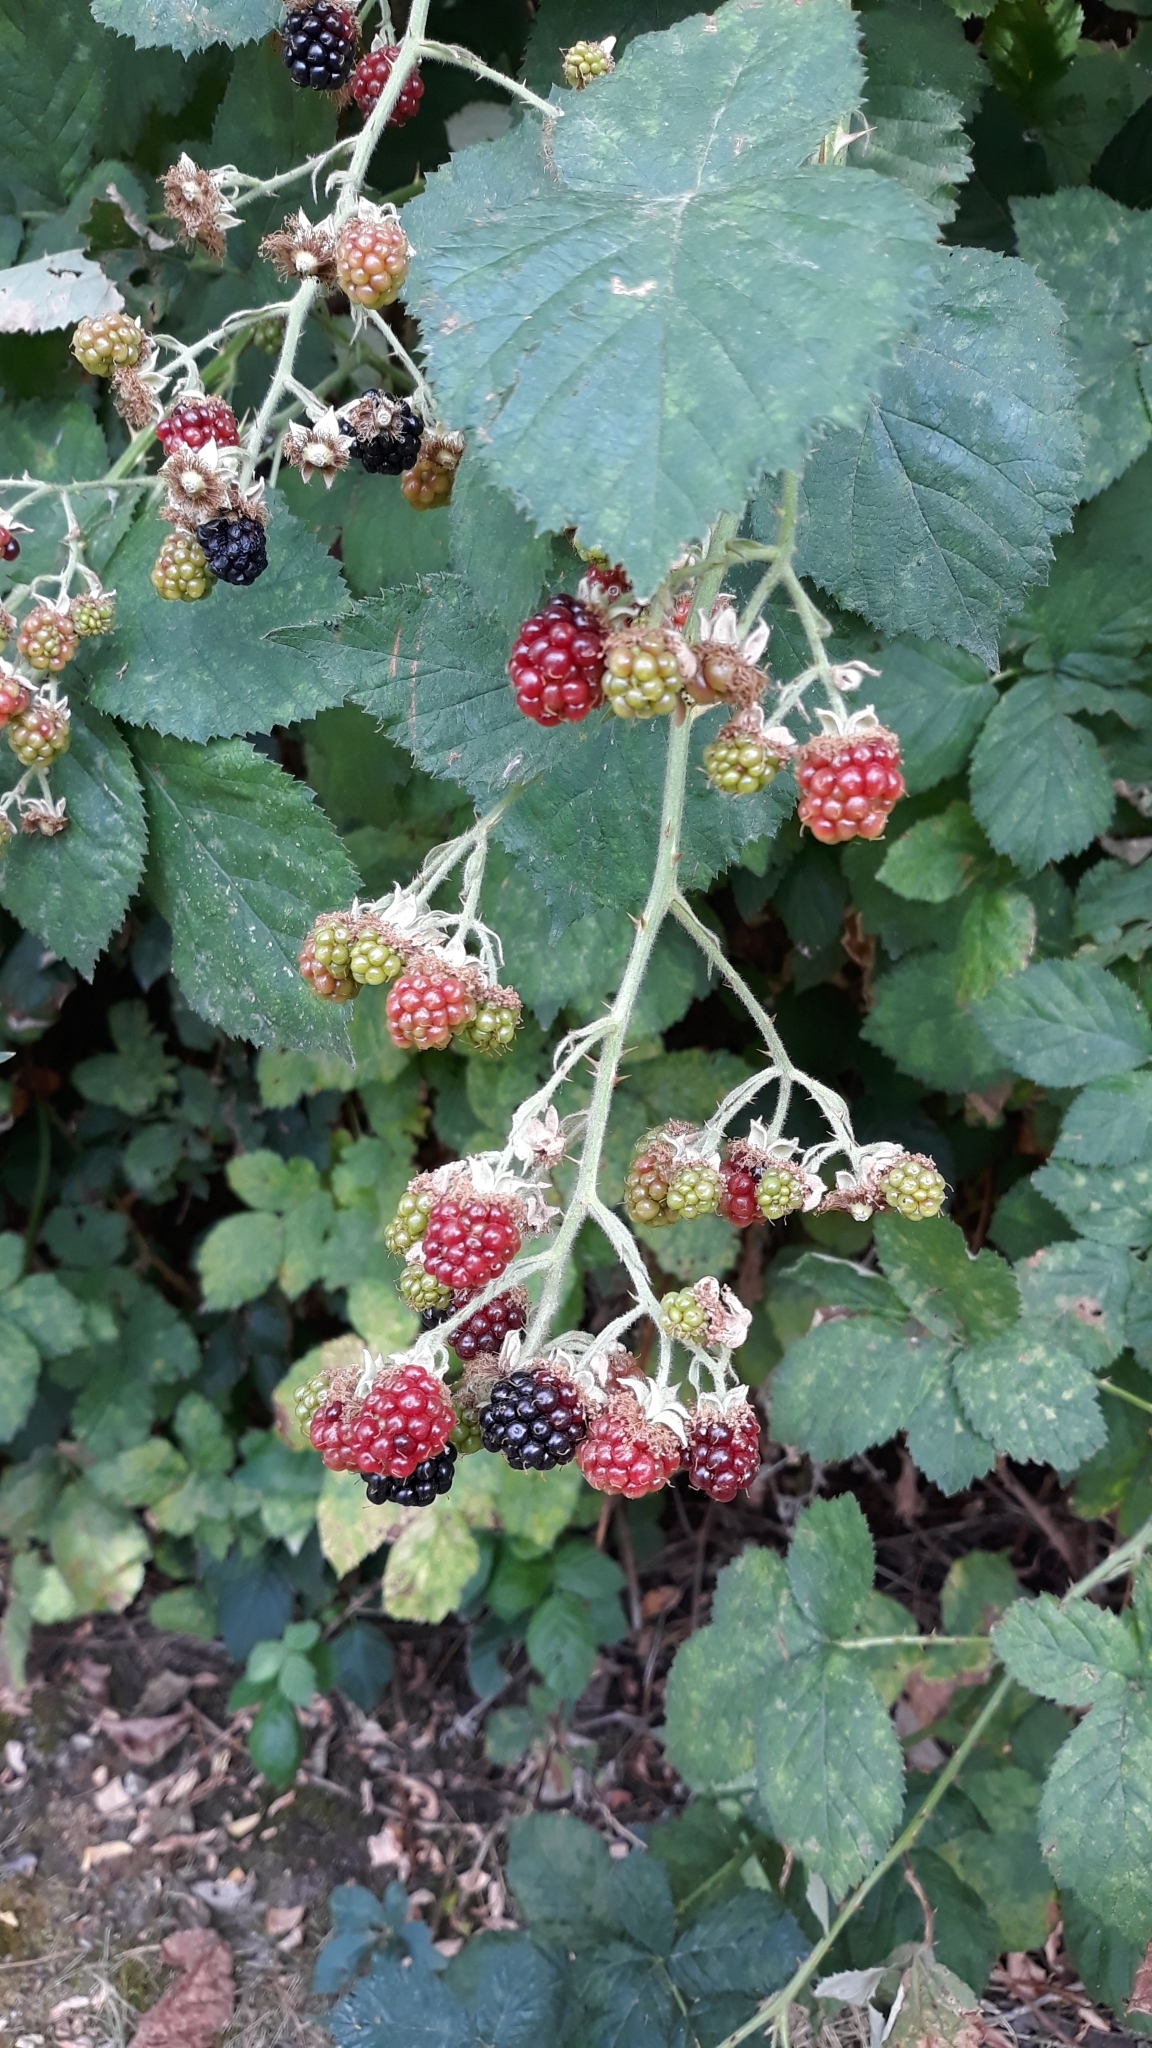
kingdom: Plantae
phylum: Tracheophyta
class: Magnoliopsida
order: Rosales
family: Rosaceae
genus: Rubus
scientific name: Rubus bifrons
